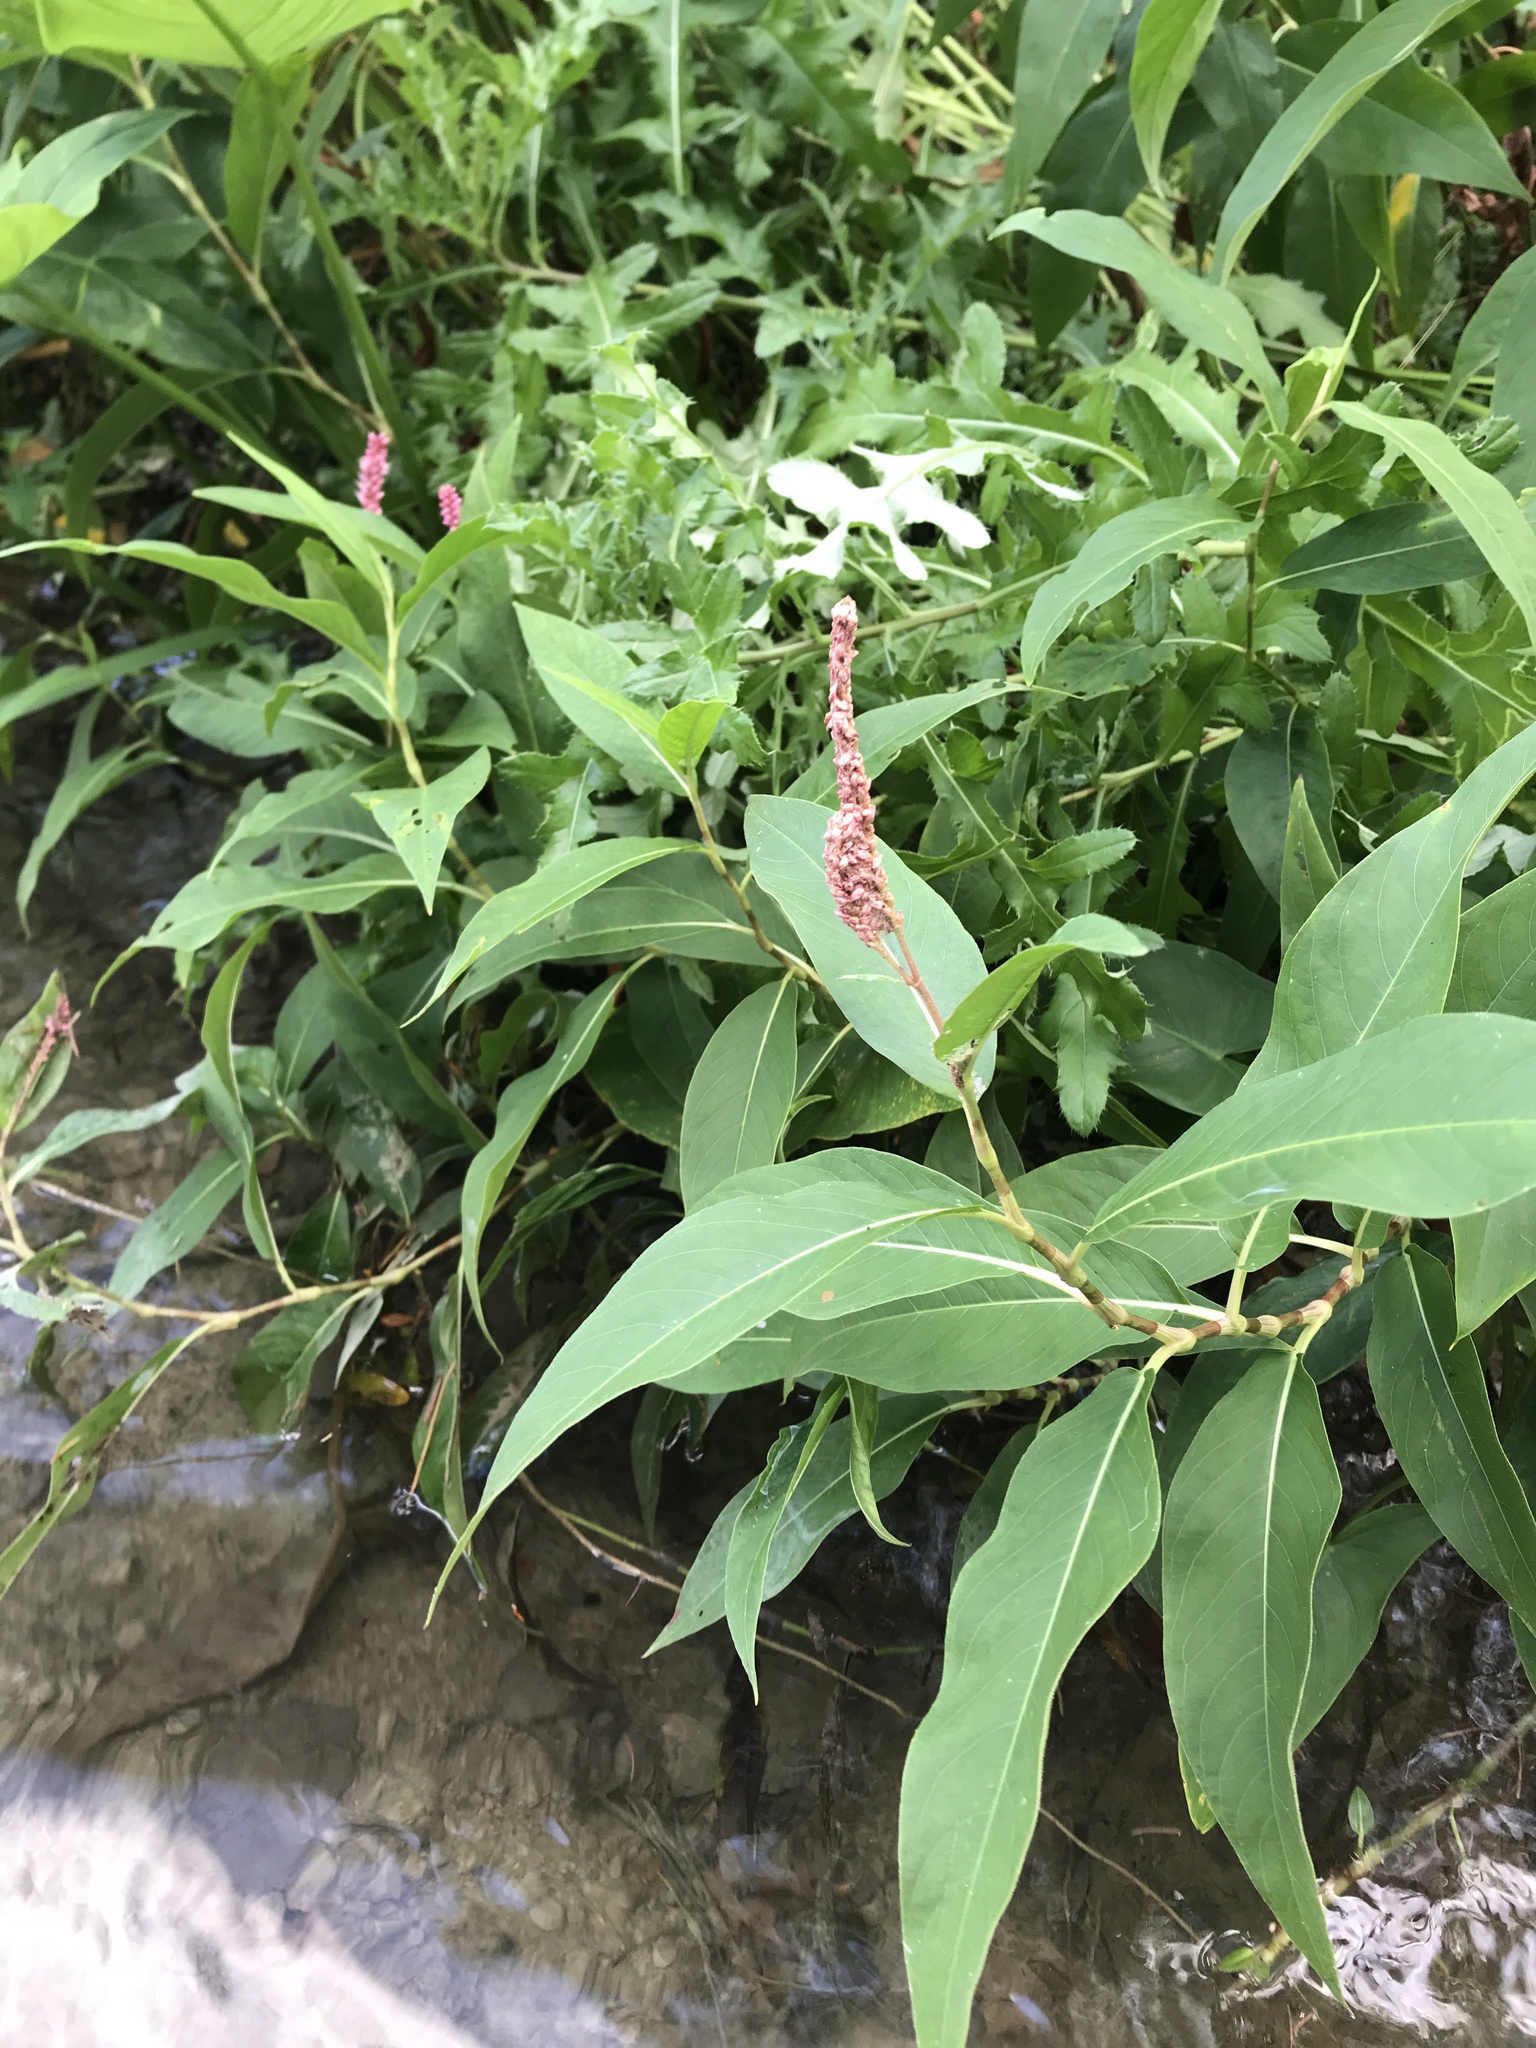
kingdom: Plantae
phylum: Tracheophyta
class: Magnoliopsida
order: Caryophyllales
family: Polygonaceae
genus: Persicaria
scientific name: Persicaria amphibia
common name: Amphibious bistort
